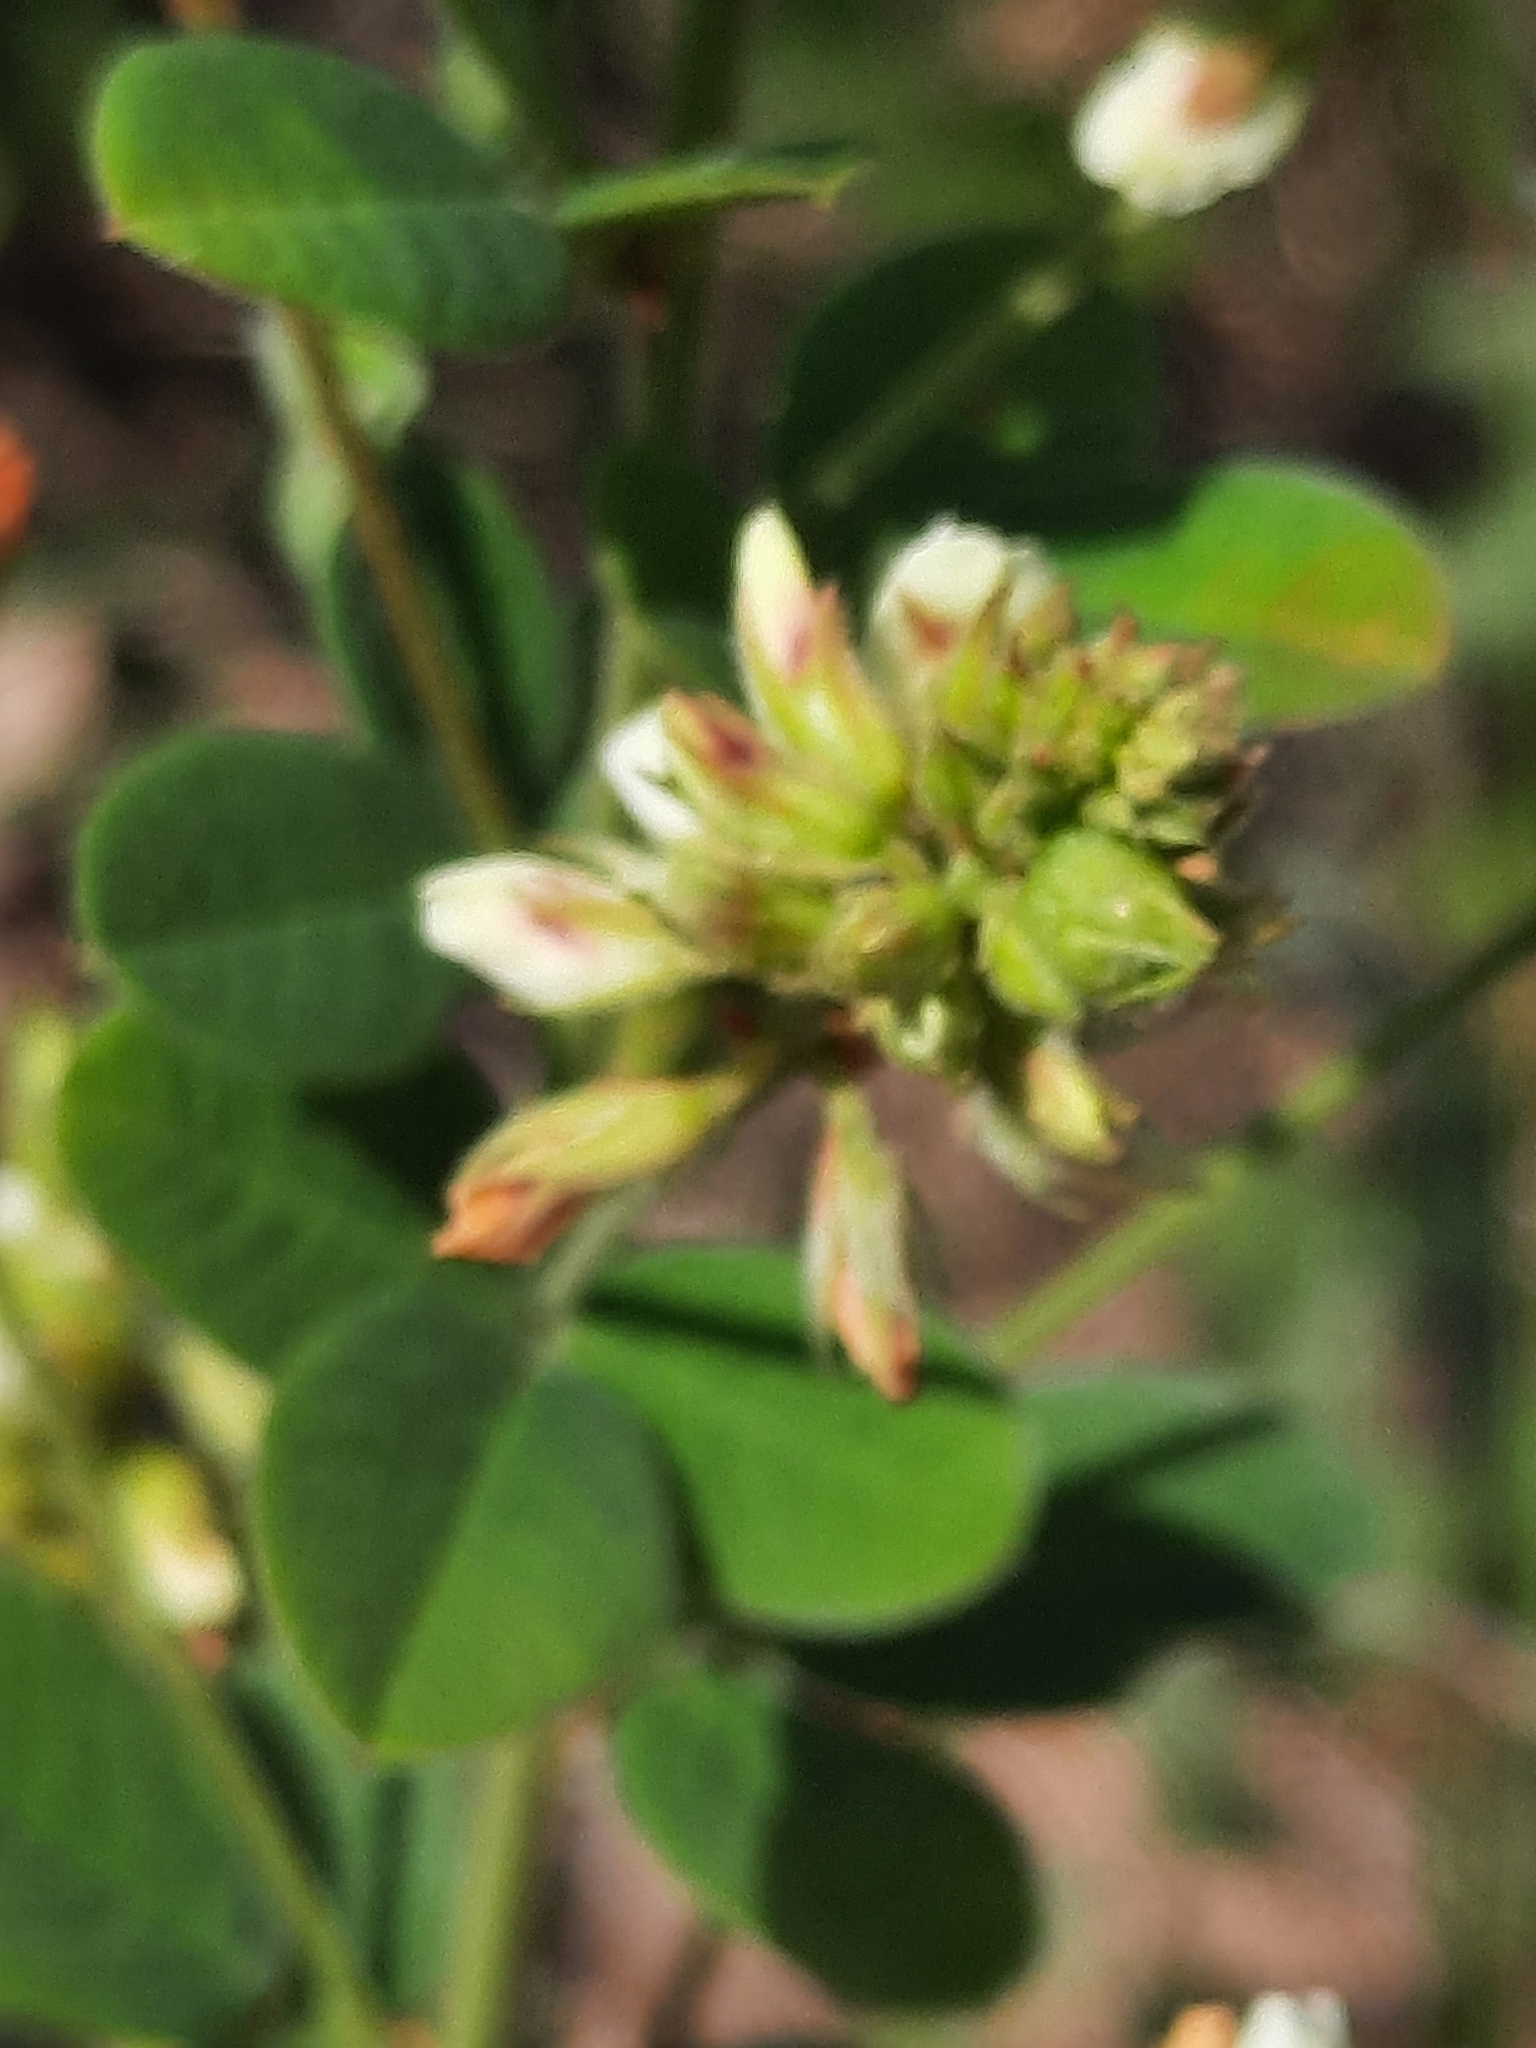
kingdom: Plantae
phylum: Tracheophyta
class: Magnoliopsida
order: Fabales
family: Fabaceae
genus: Lespedeza
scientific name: Lespedeza hirta
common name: Hairy lespedeza
